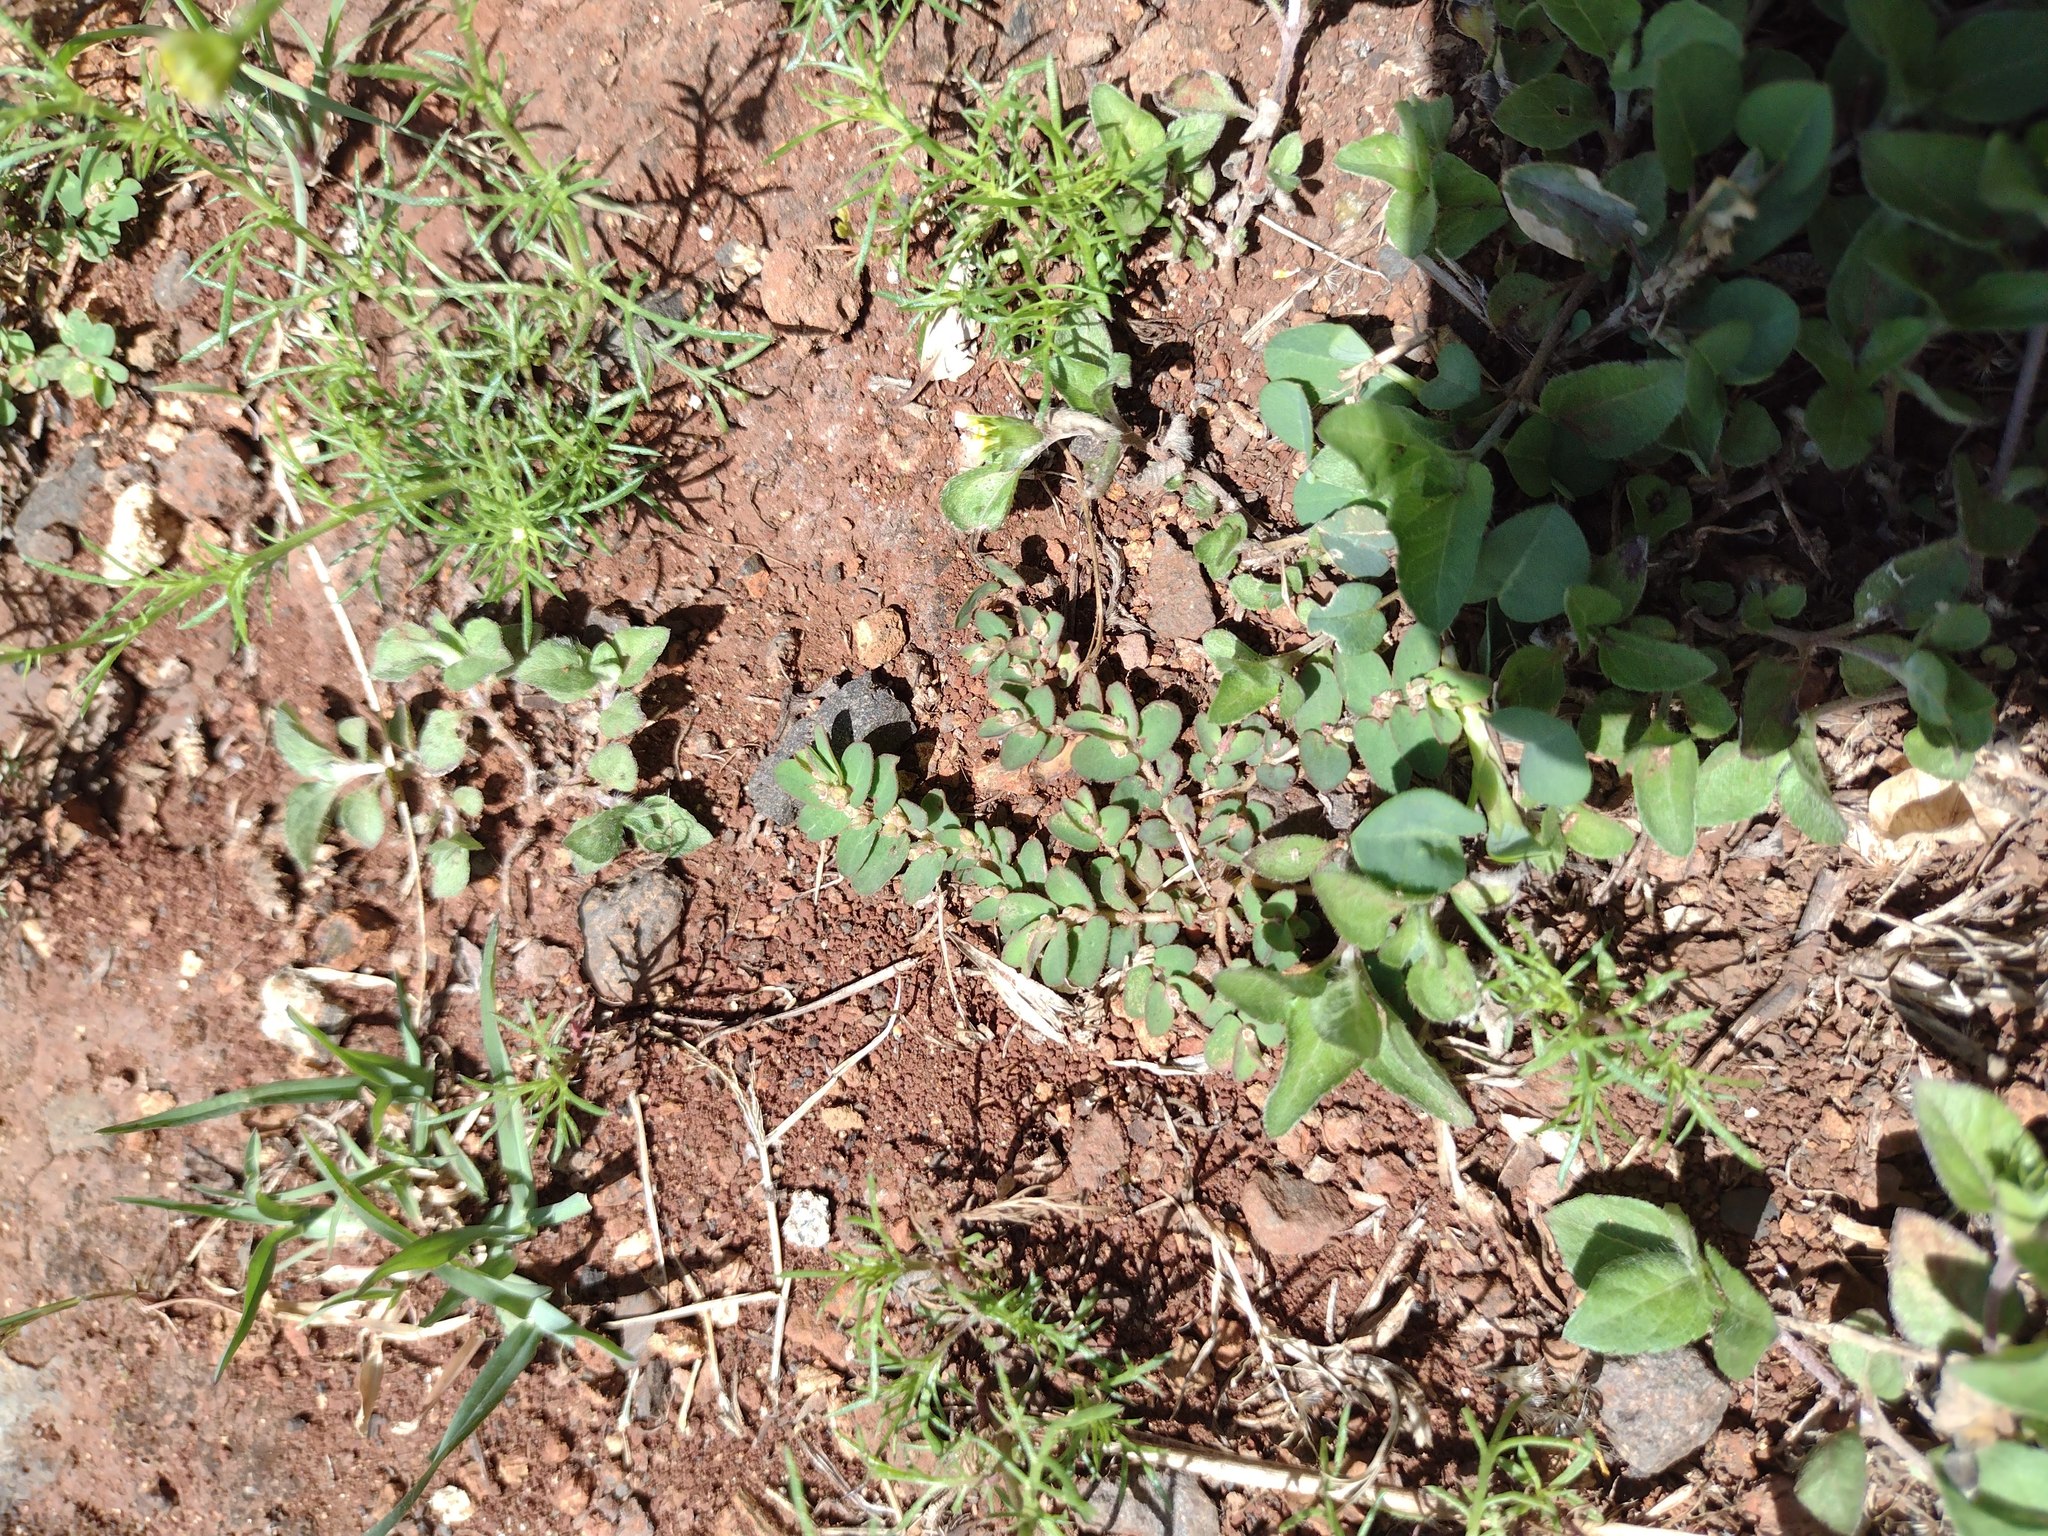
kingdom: Plantae
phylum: Tracheophyta
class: Magnoliopsida
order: Malpighiales
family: Euphorbiaceae
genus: Euphorbia
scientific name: Euphorbia thymifolia
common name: Gulf sandmat
